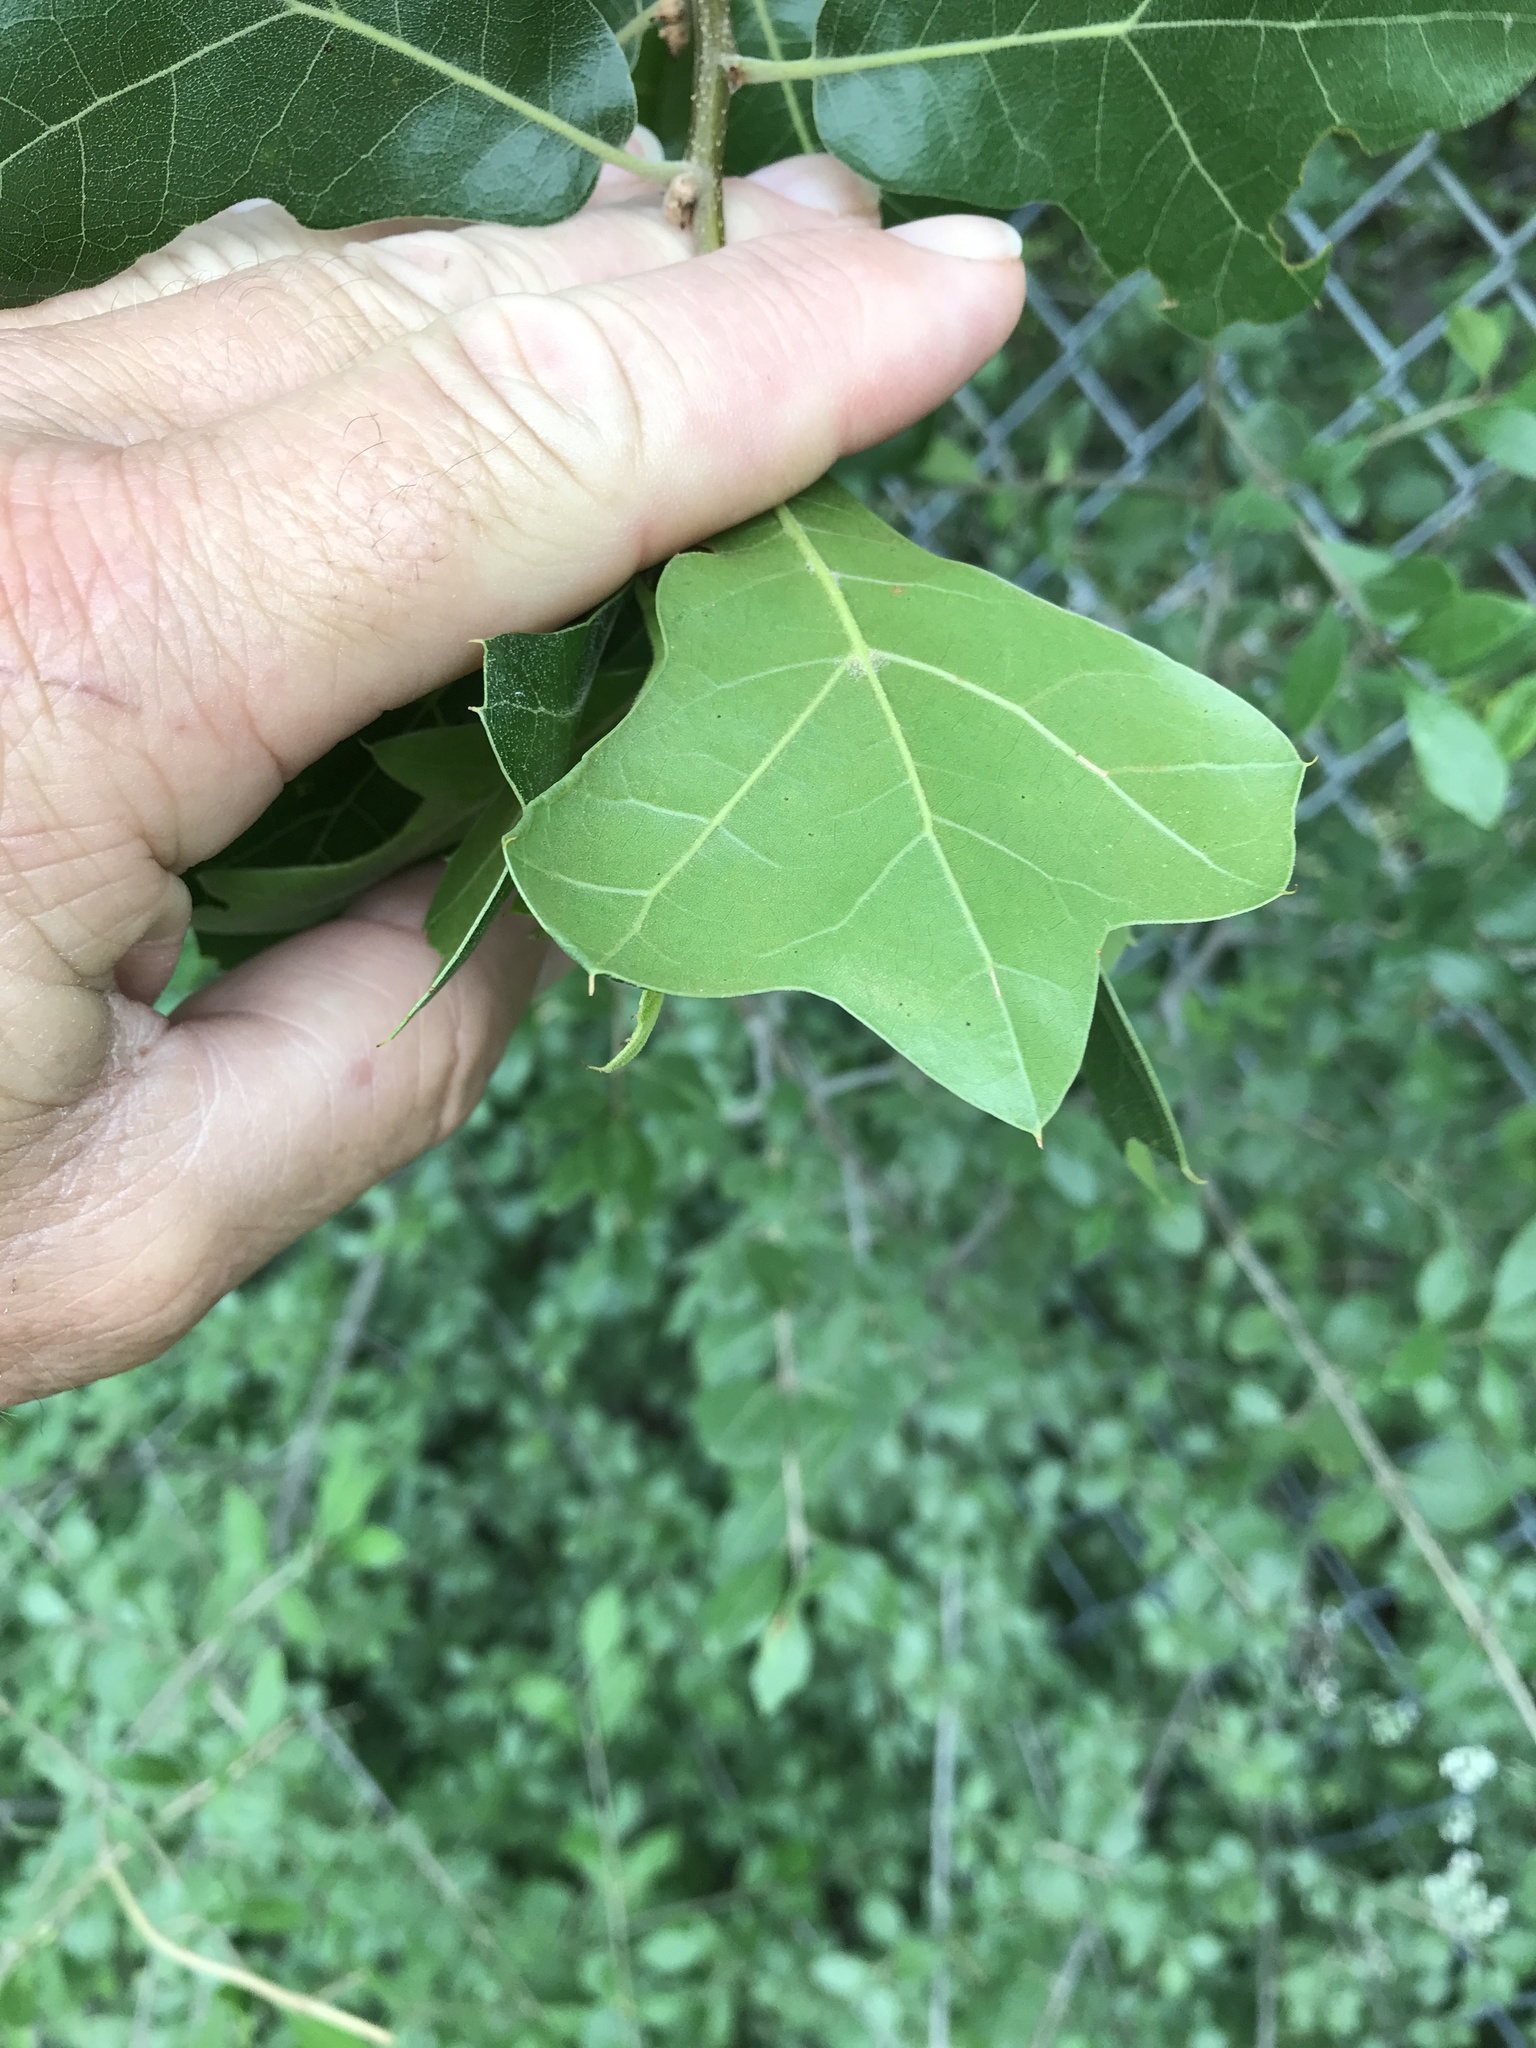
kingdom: Plantae
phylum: Tracheophyta
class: Magnoliopsida
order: Fagales
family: Fagaceae
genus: Quercus
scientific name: Quercus marilandica
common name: Blackjack oak
